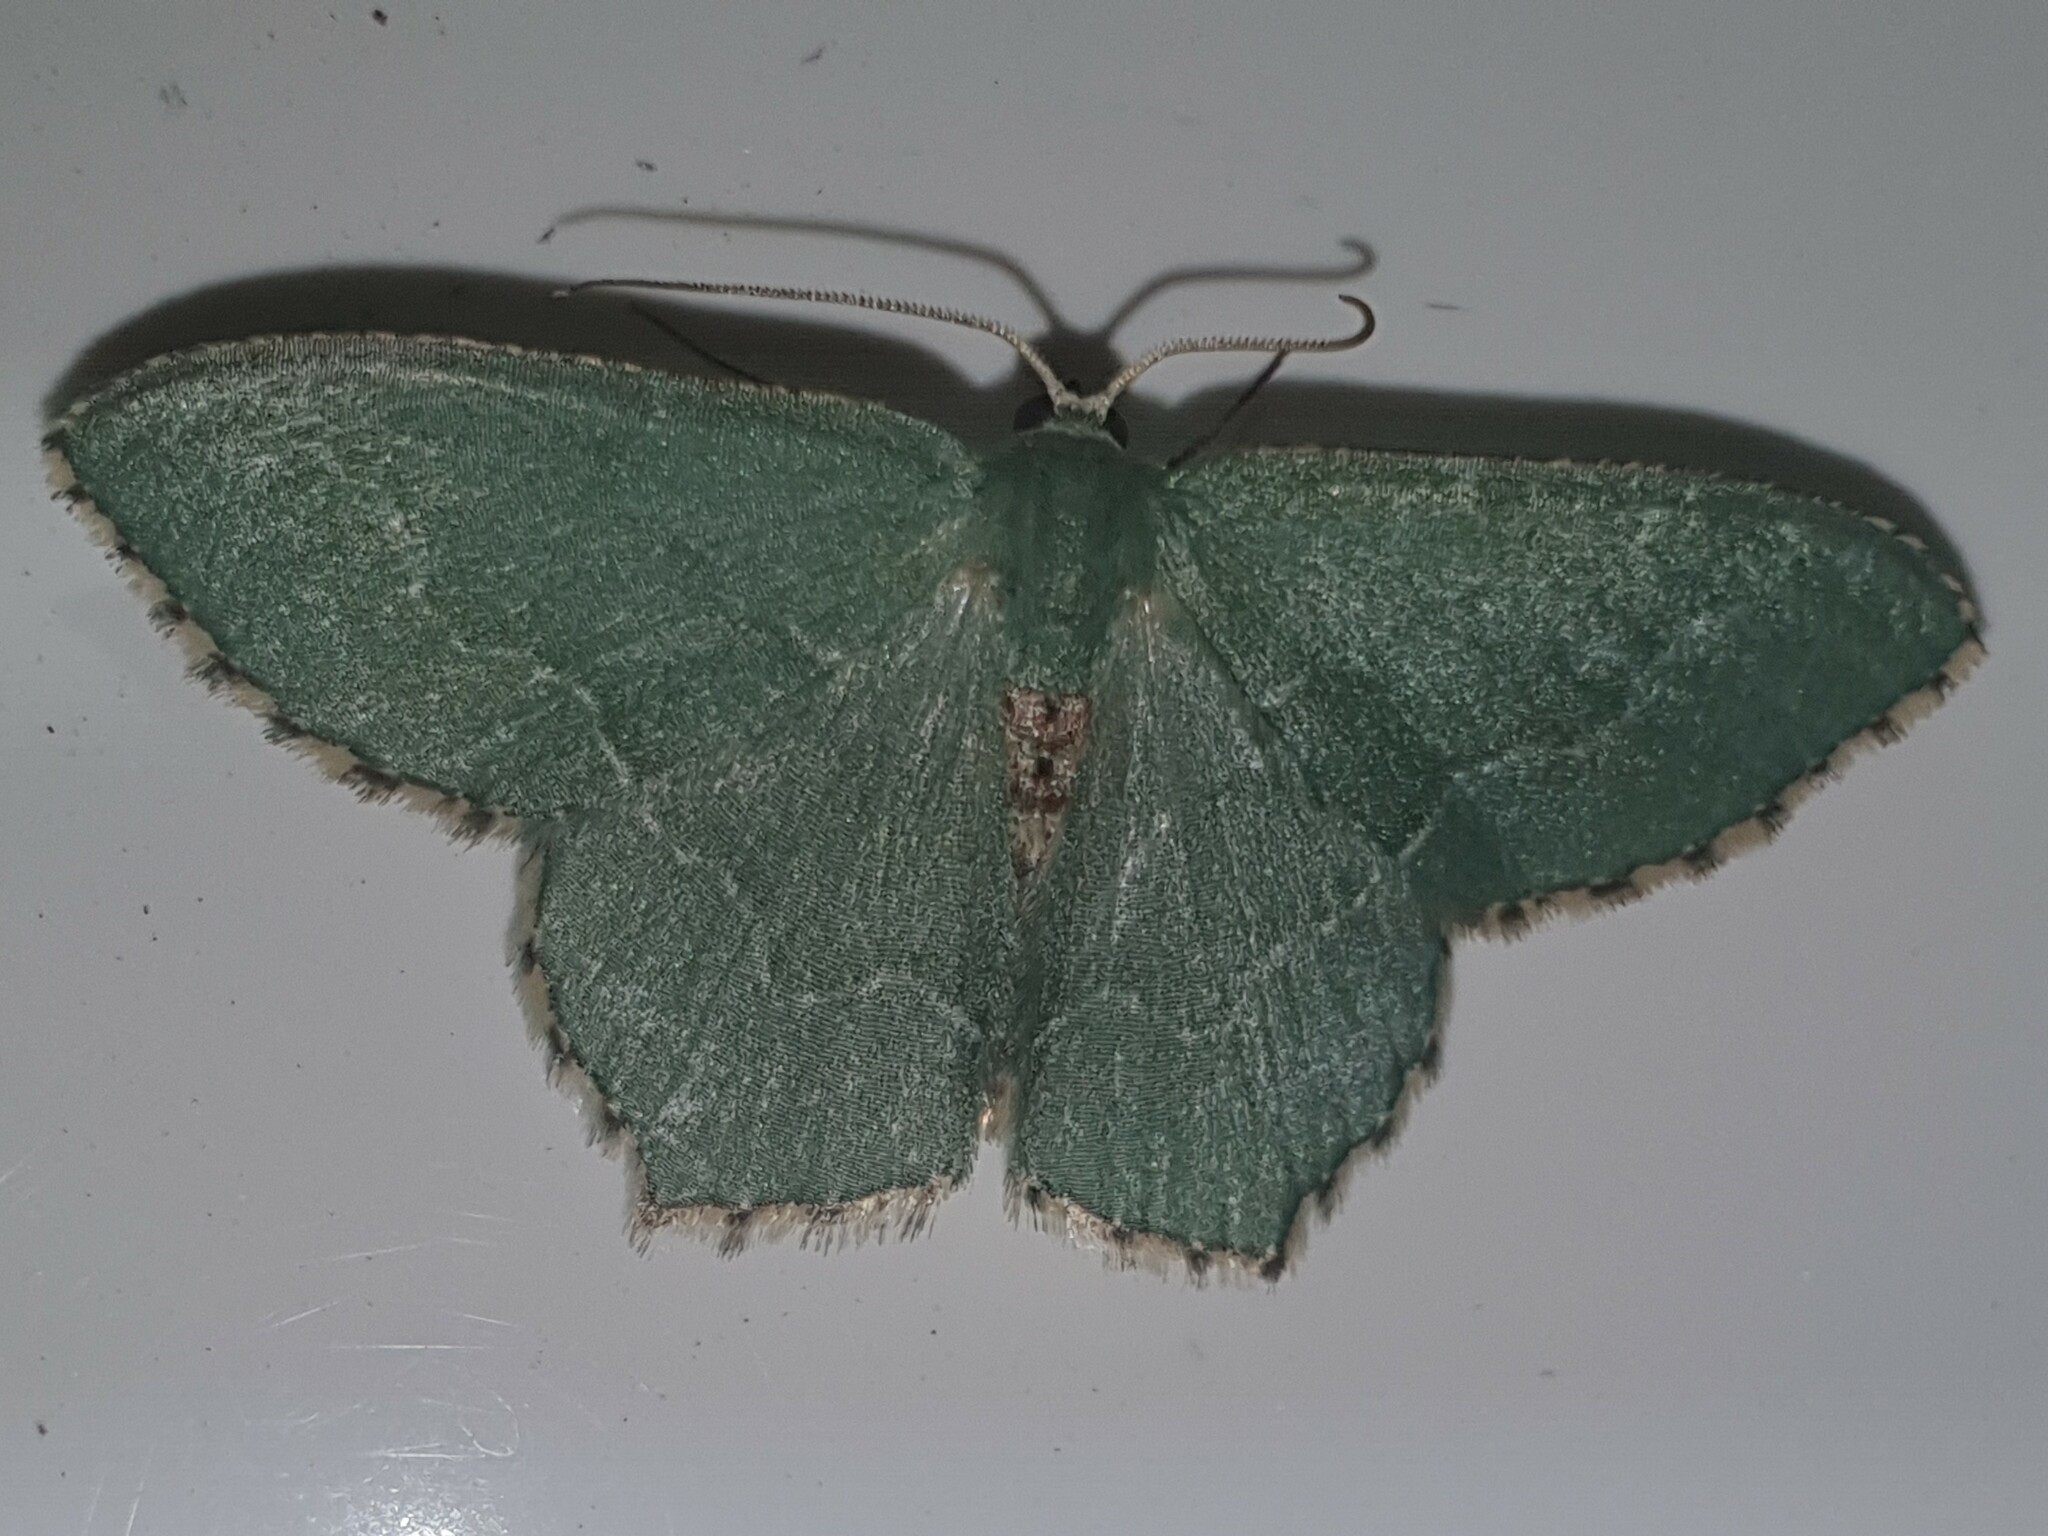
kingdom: Animalia
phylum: Arthropoda
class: Insecta
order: Lepidoptera
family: Geometridae
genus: Hemithea
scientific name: Hemithea aestivaria
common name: Common emerald
